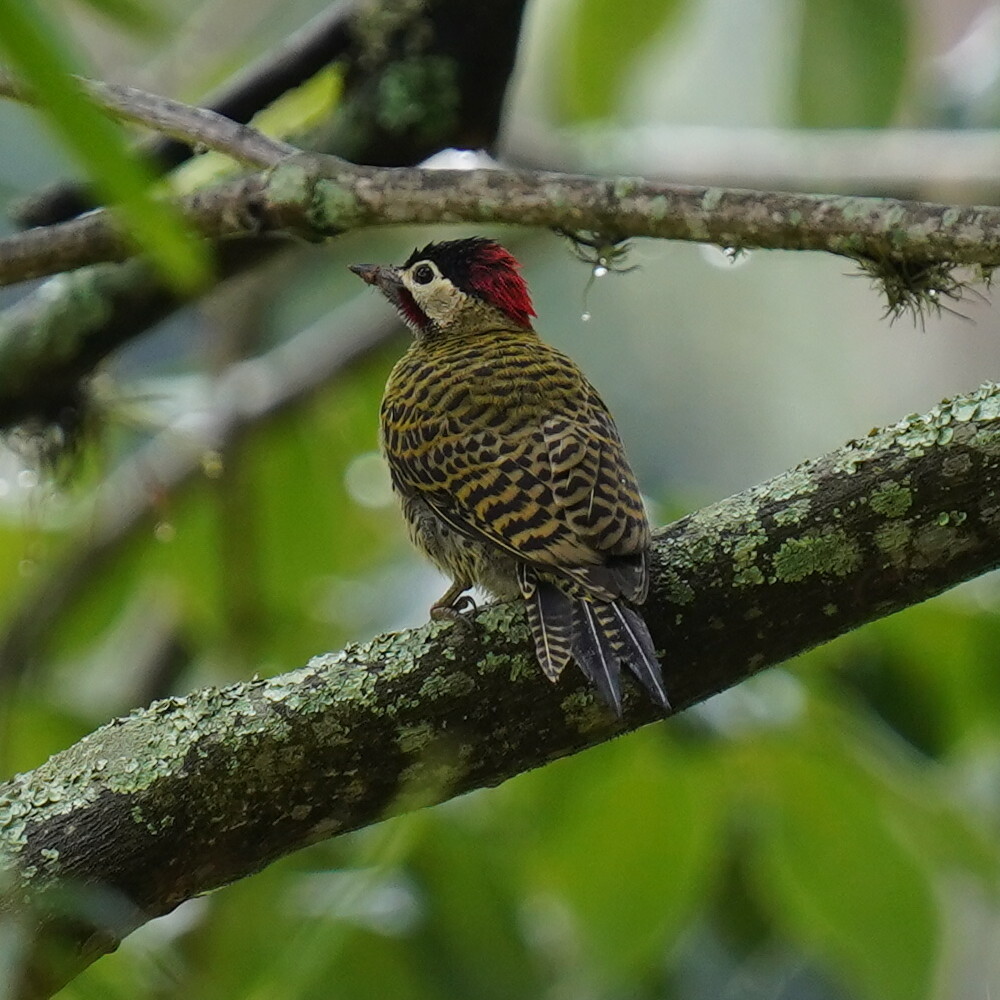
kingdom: Animalia
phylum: Chordata
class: Aves
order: Piciformes
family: Picidae
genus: Colaptes
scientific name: Colaptes melanochloros
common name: Green-barred woodpecker
